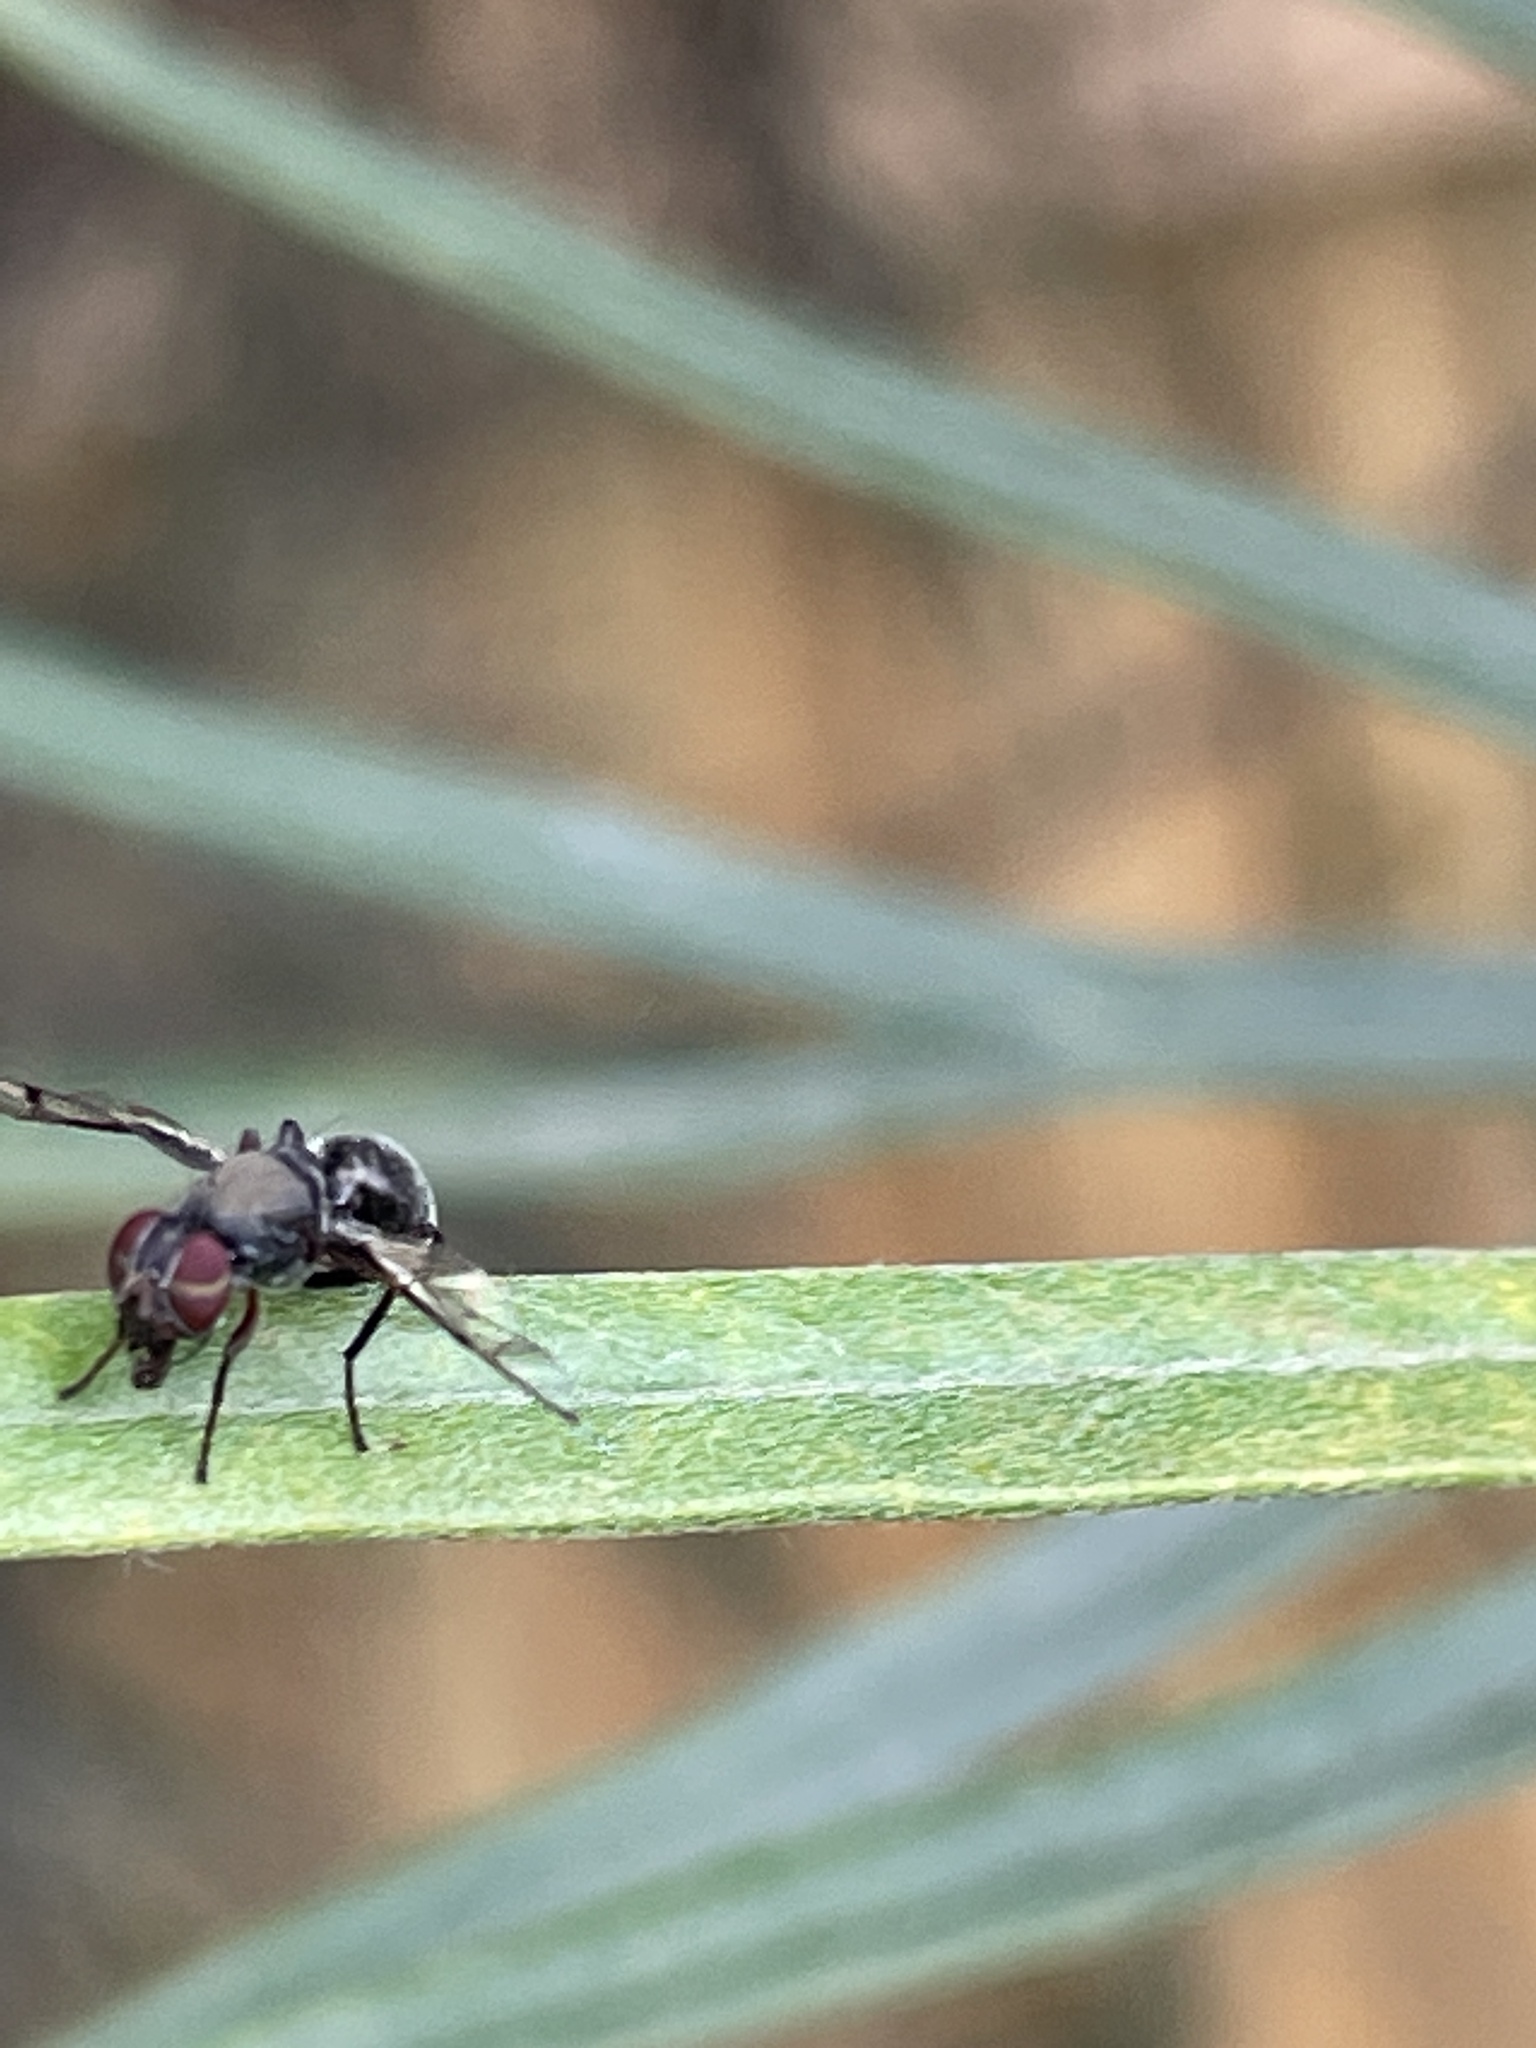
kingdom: Animalia
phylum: Arthropoda
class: Insecta
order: Diptera
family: Platystomatidae
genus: Pogonortalis
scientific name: Pogonortalis doclea
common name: Boatman fly
